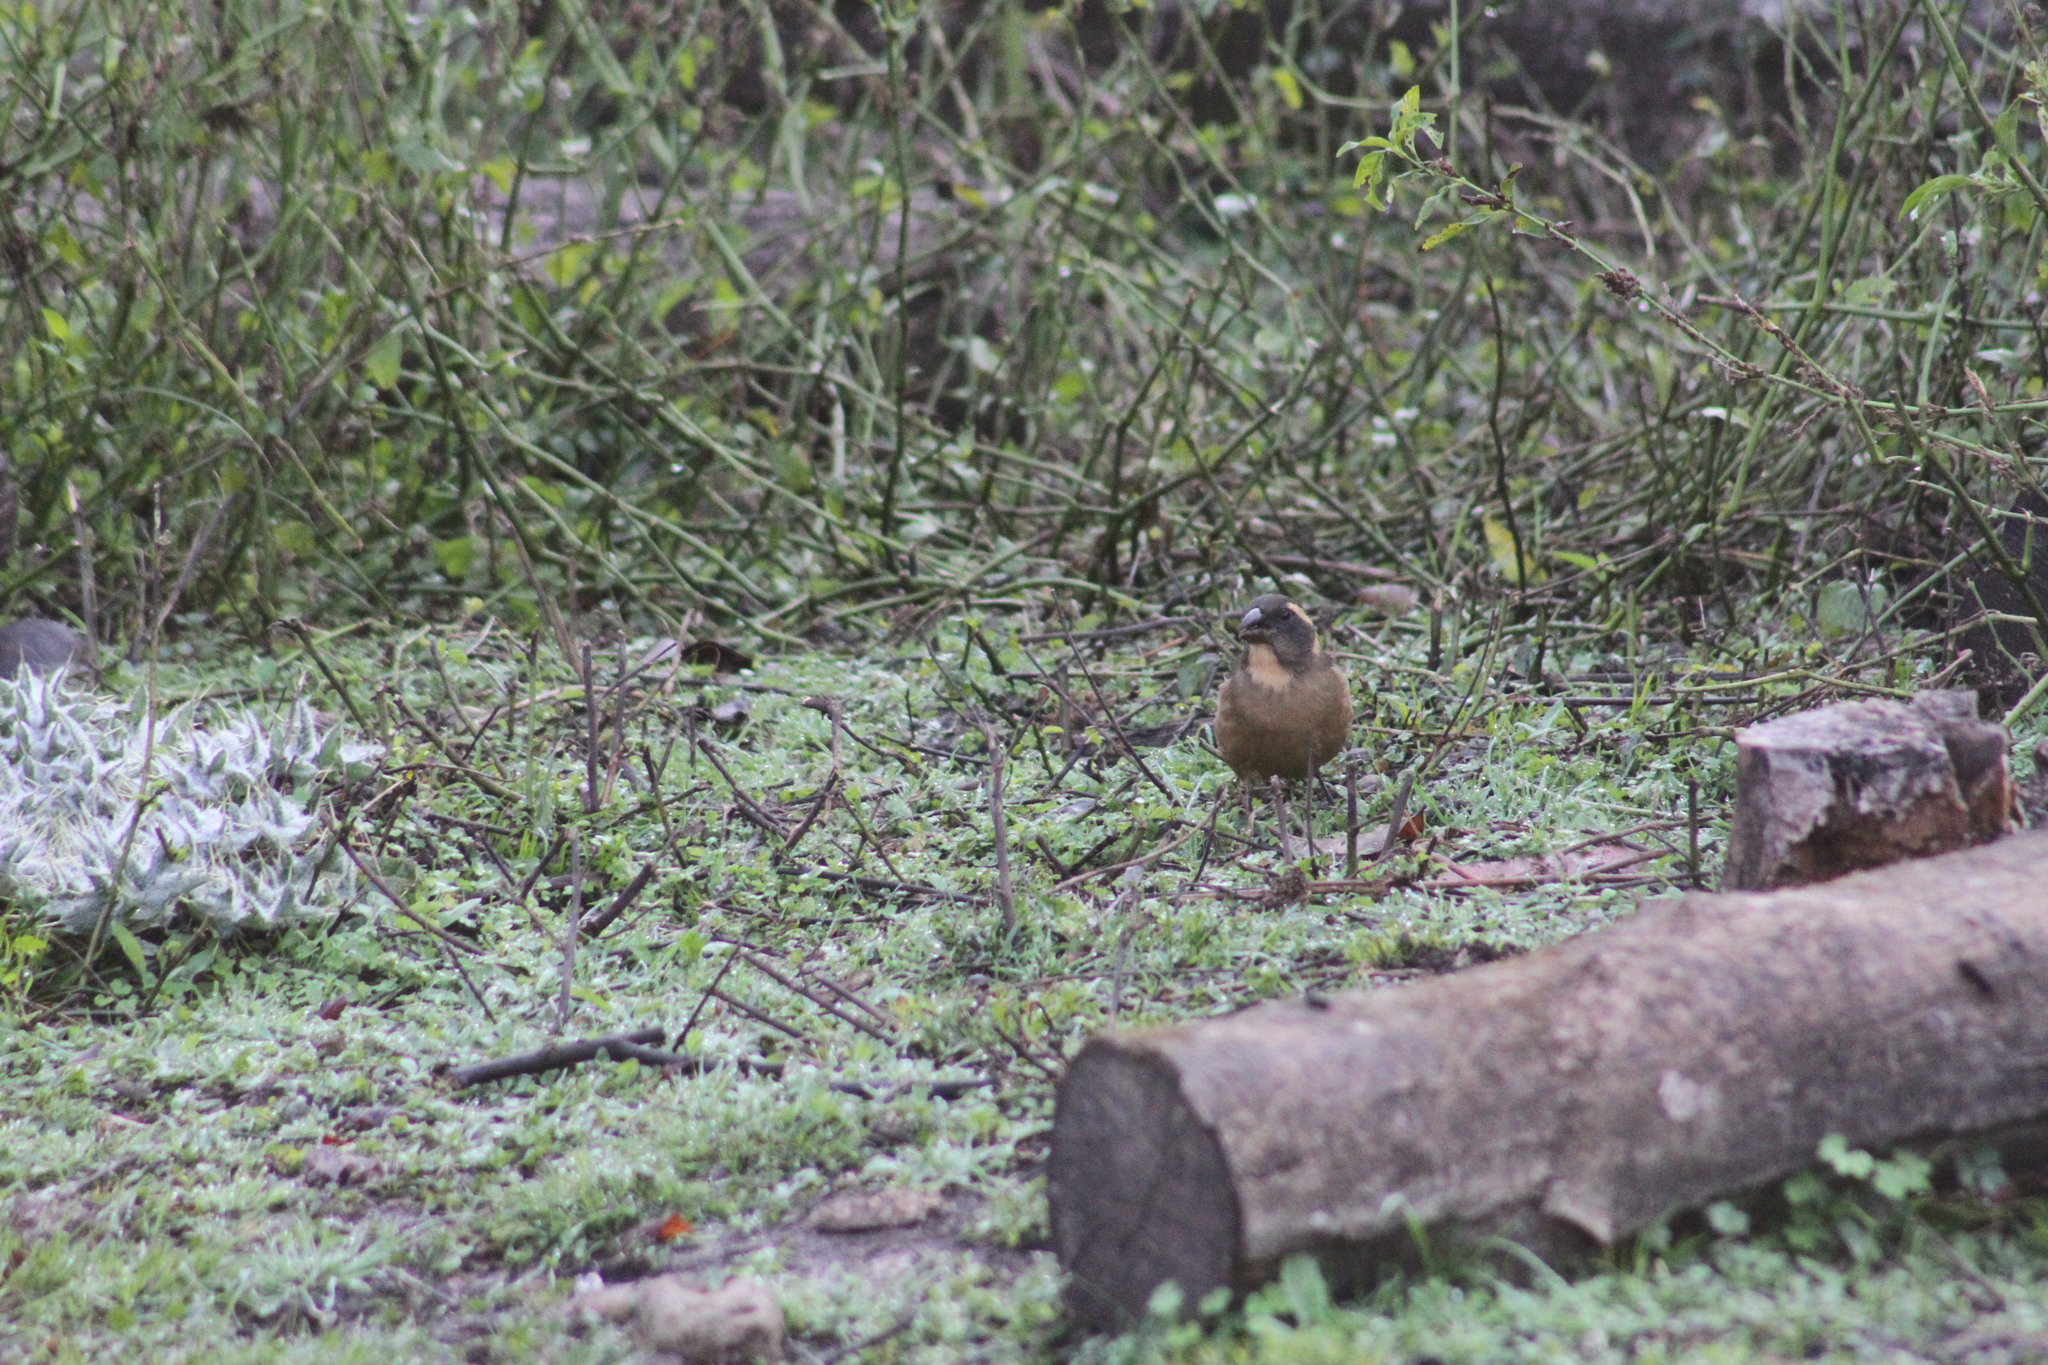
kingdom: Animalia
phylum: Chordata
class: Aves
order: Passeriformes
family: Thraupidae
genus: Saltator
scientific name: Saltator aurantiirostris
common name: Golden-billed saltator
